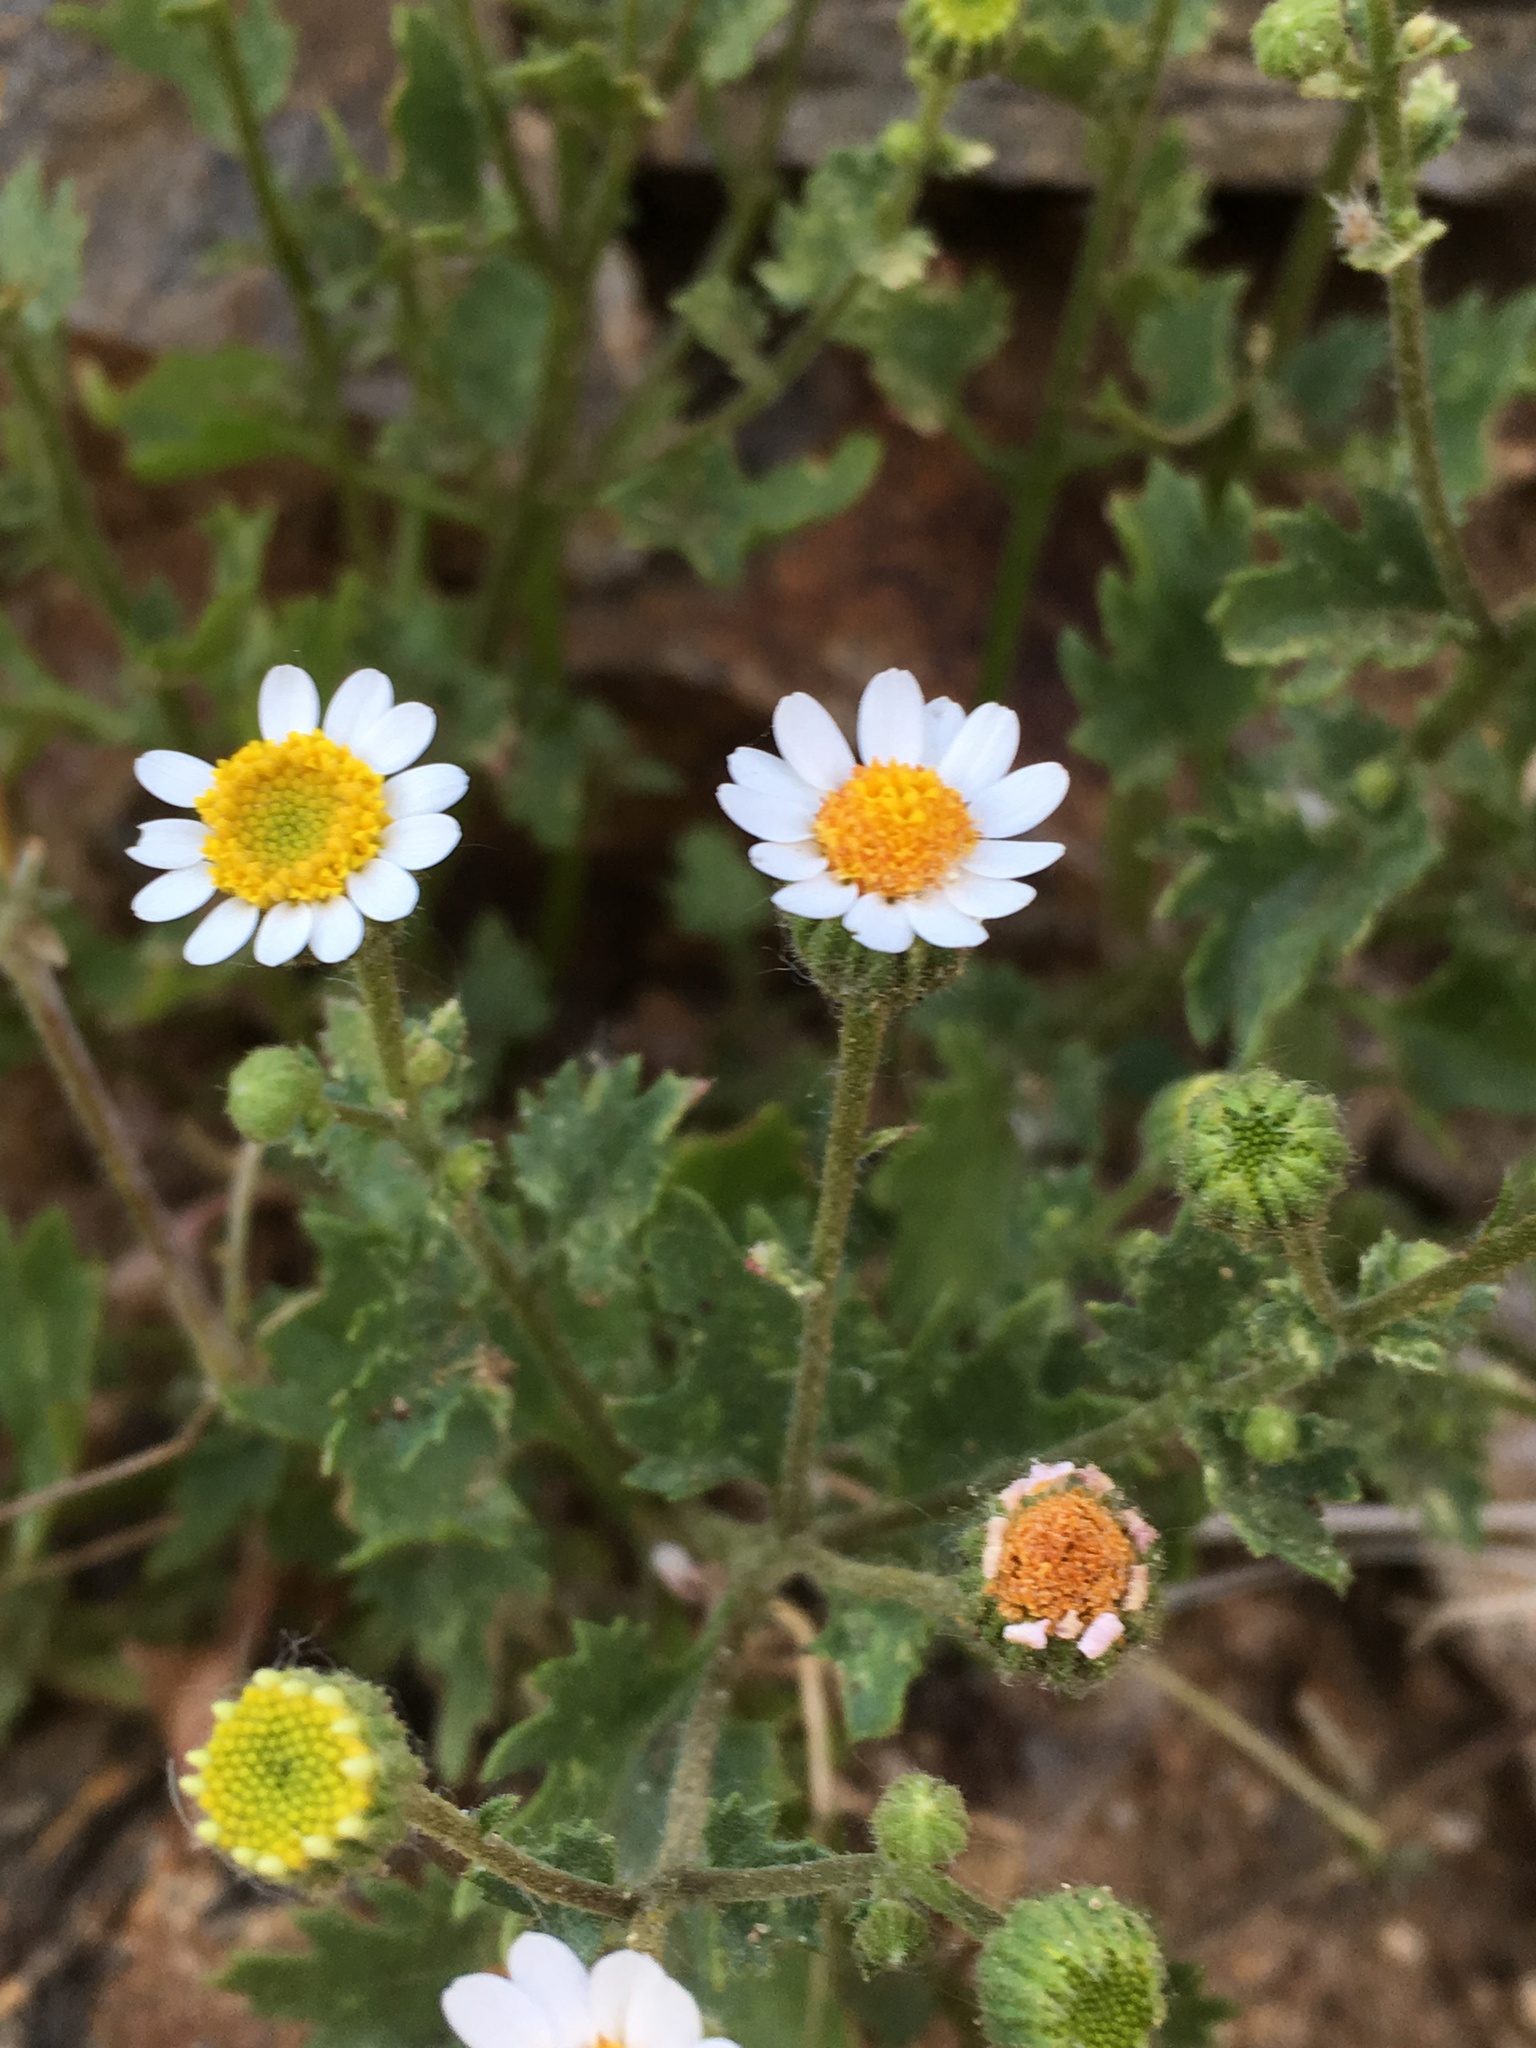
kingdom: Plantae
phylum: Tracheophyta
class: Magnoliopsida
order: Asterales
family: Asteraceae
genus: Laphamia
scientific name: Laphamia emoryi
